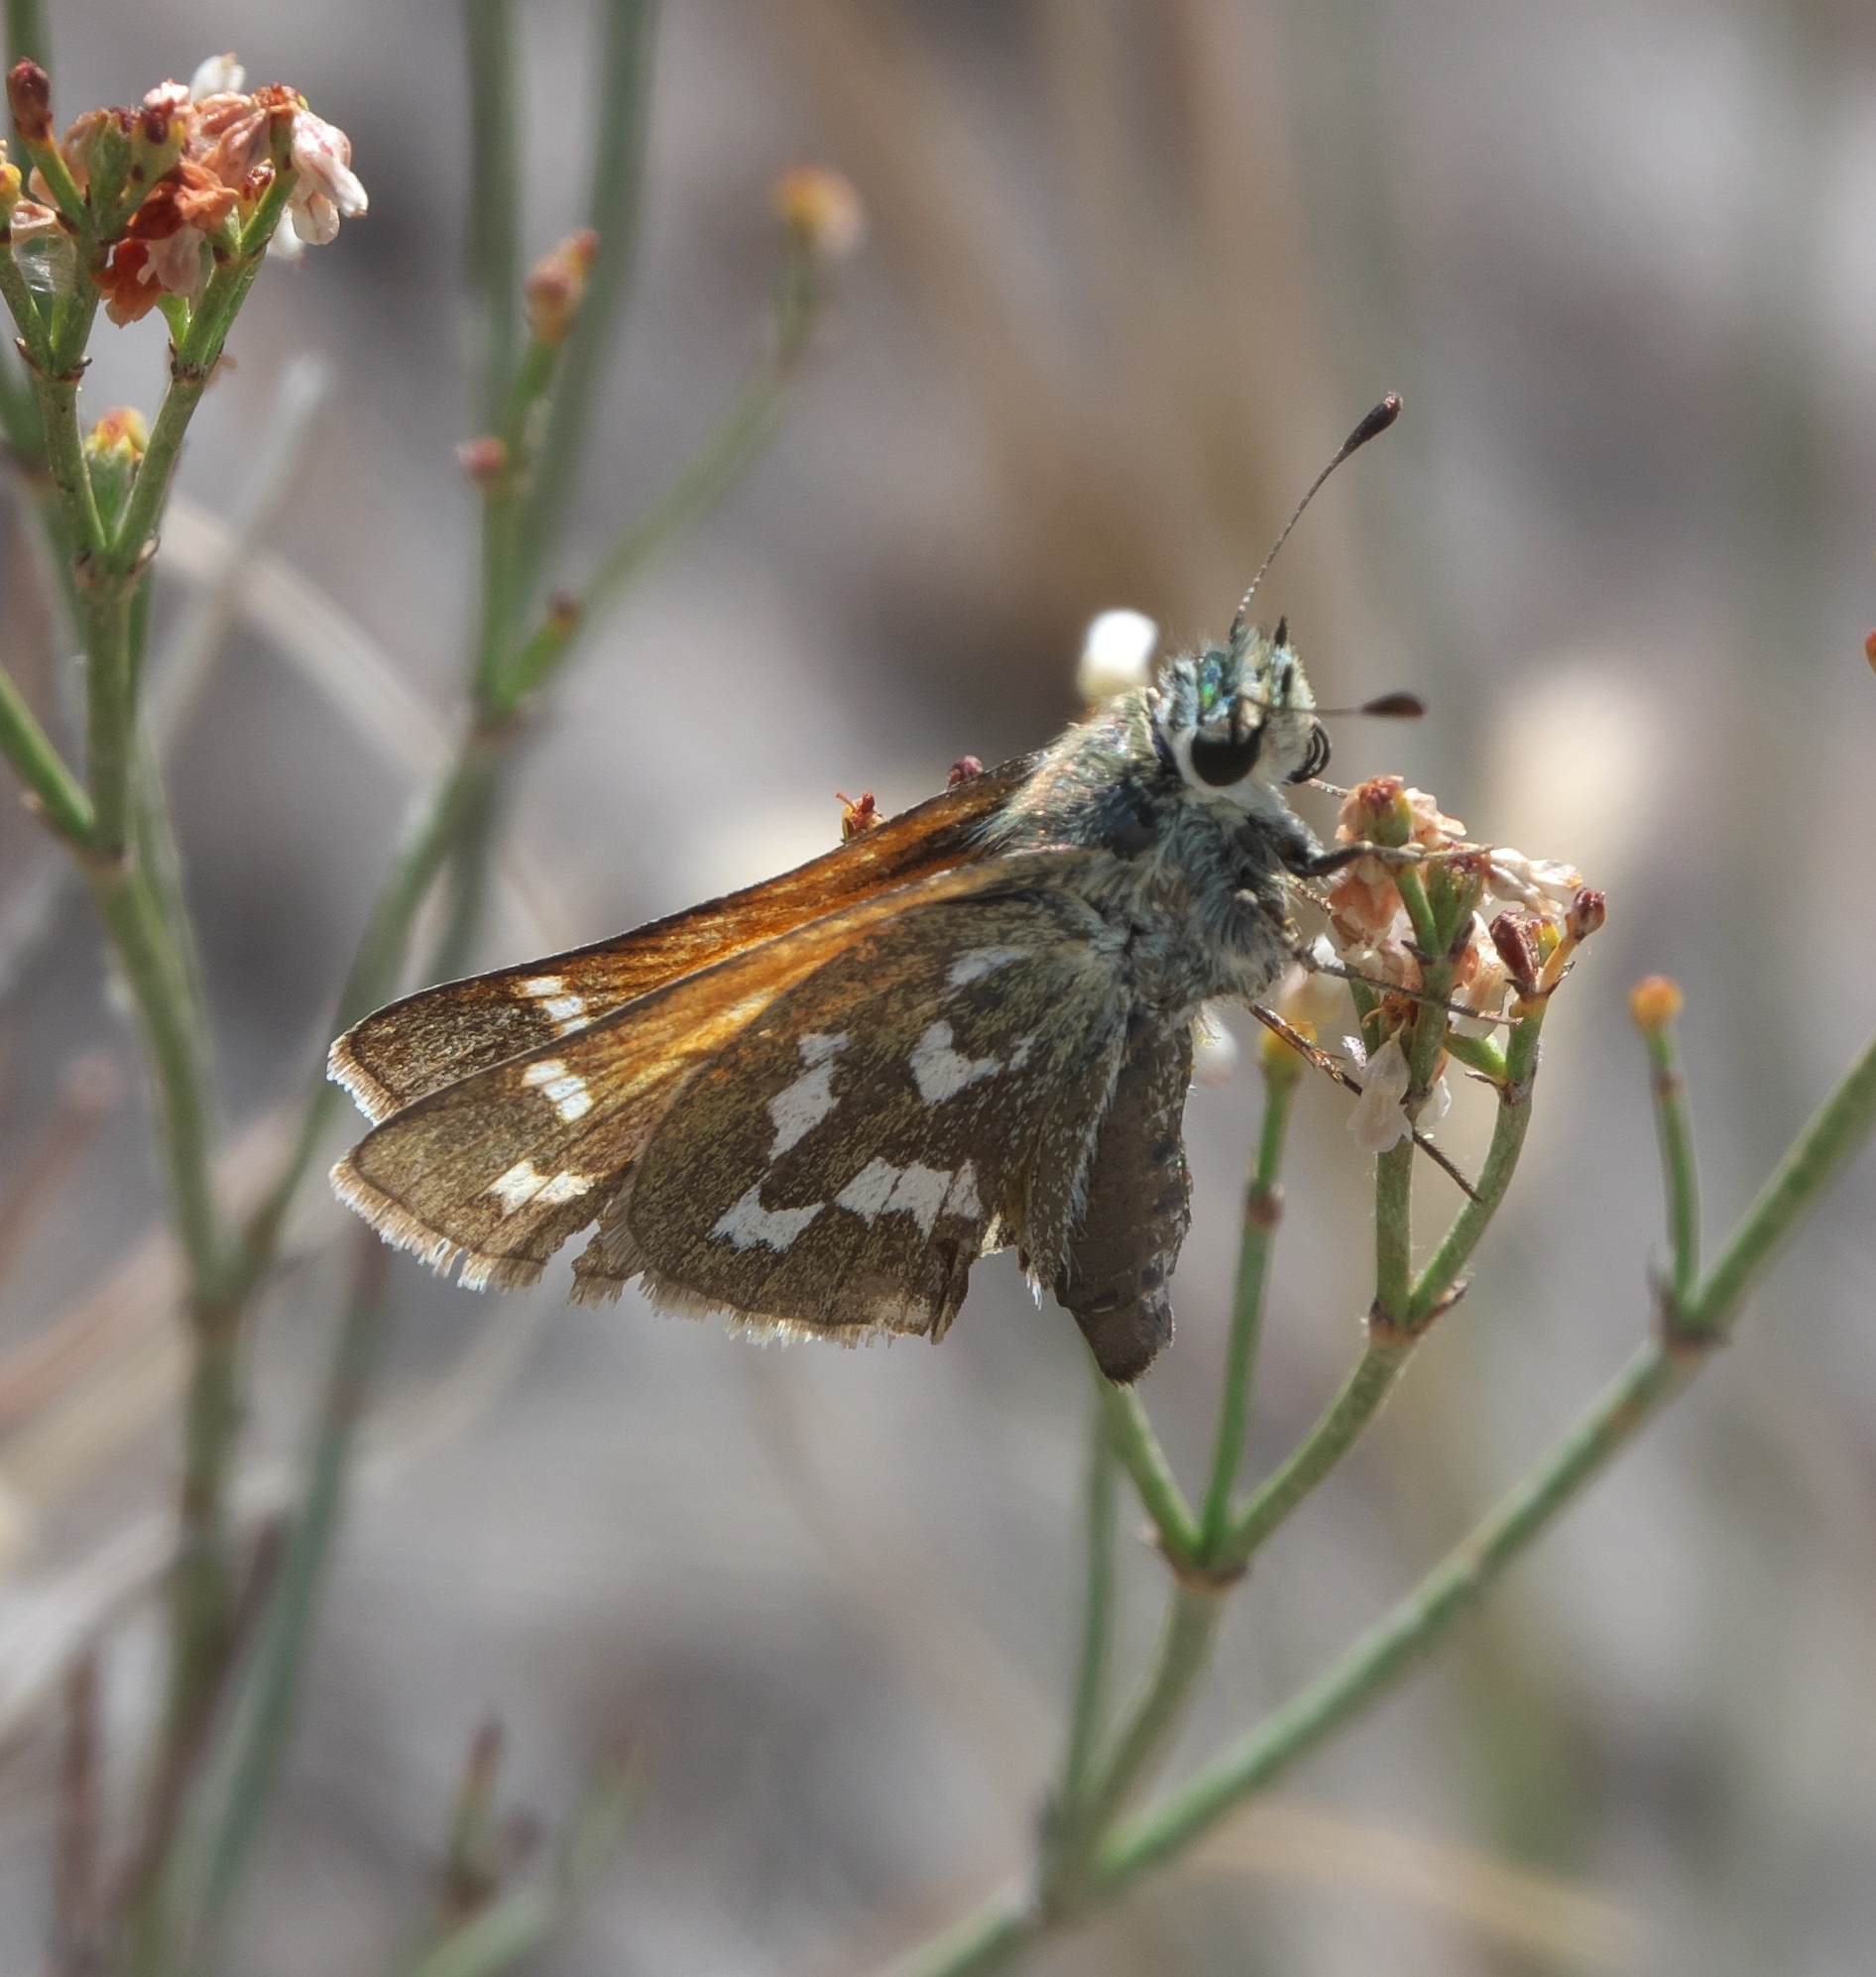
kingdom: Animalia
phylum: Arthropoda
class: Insecta
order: Lepidoptera
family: Hesperiidae
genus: Hesperia
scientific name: Hesperia juba
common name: Juba skipper
